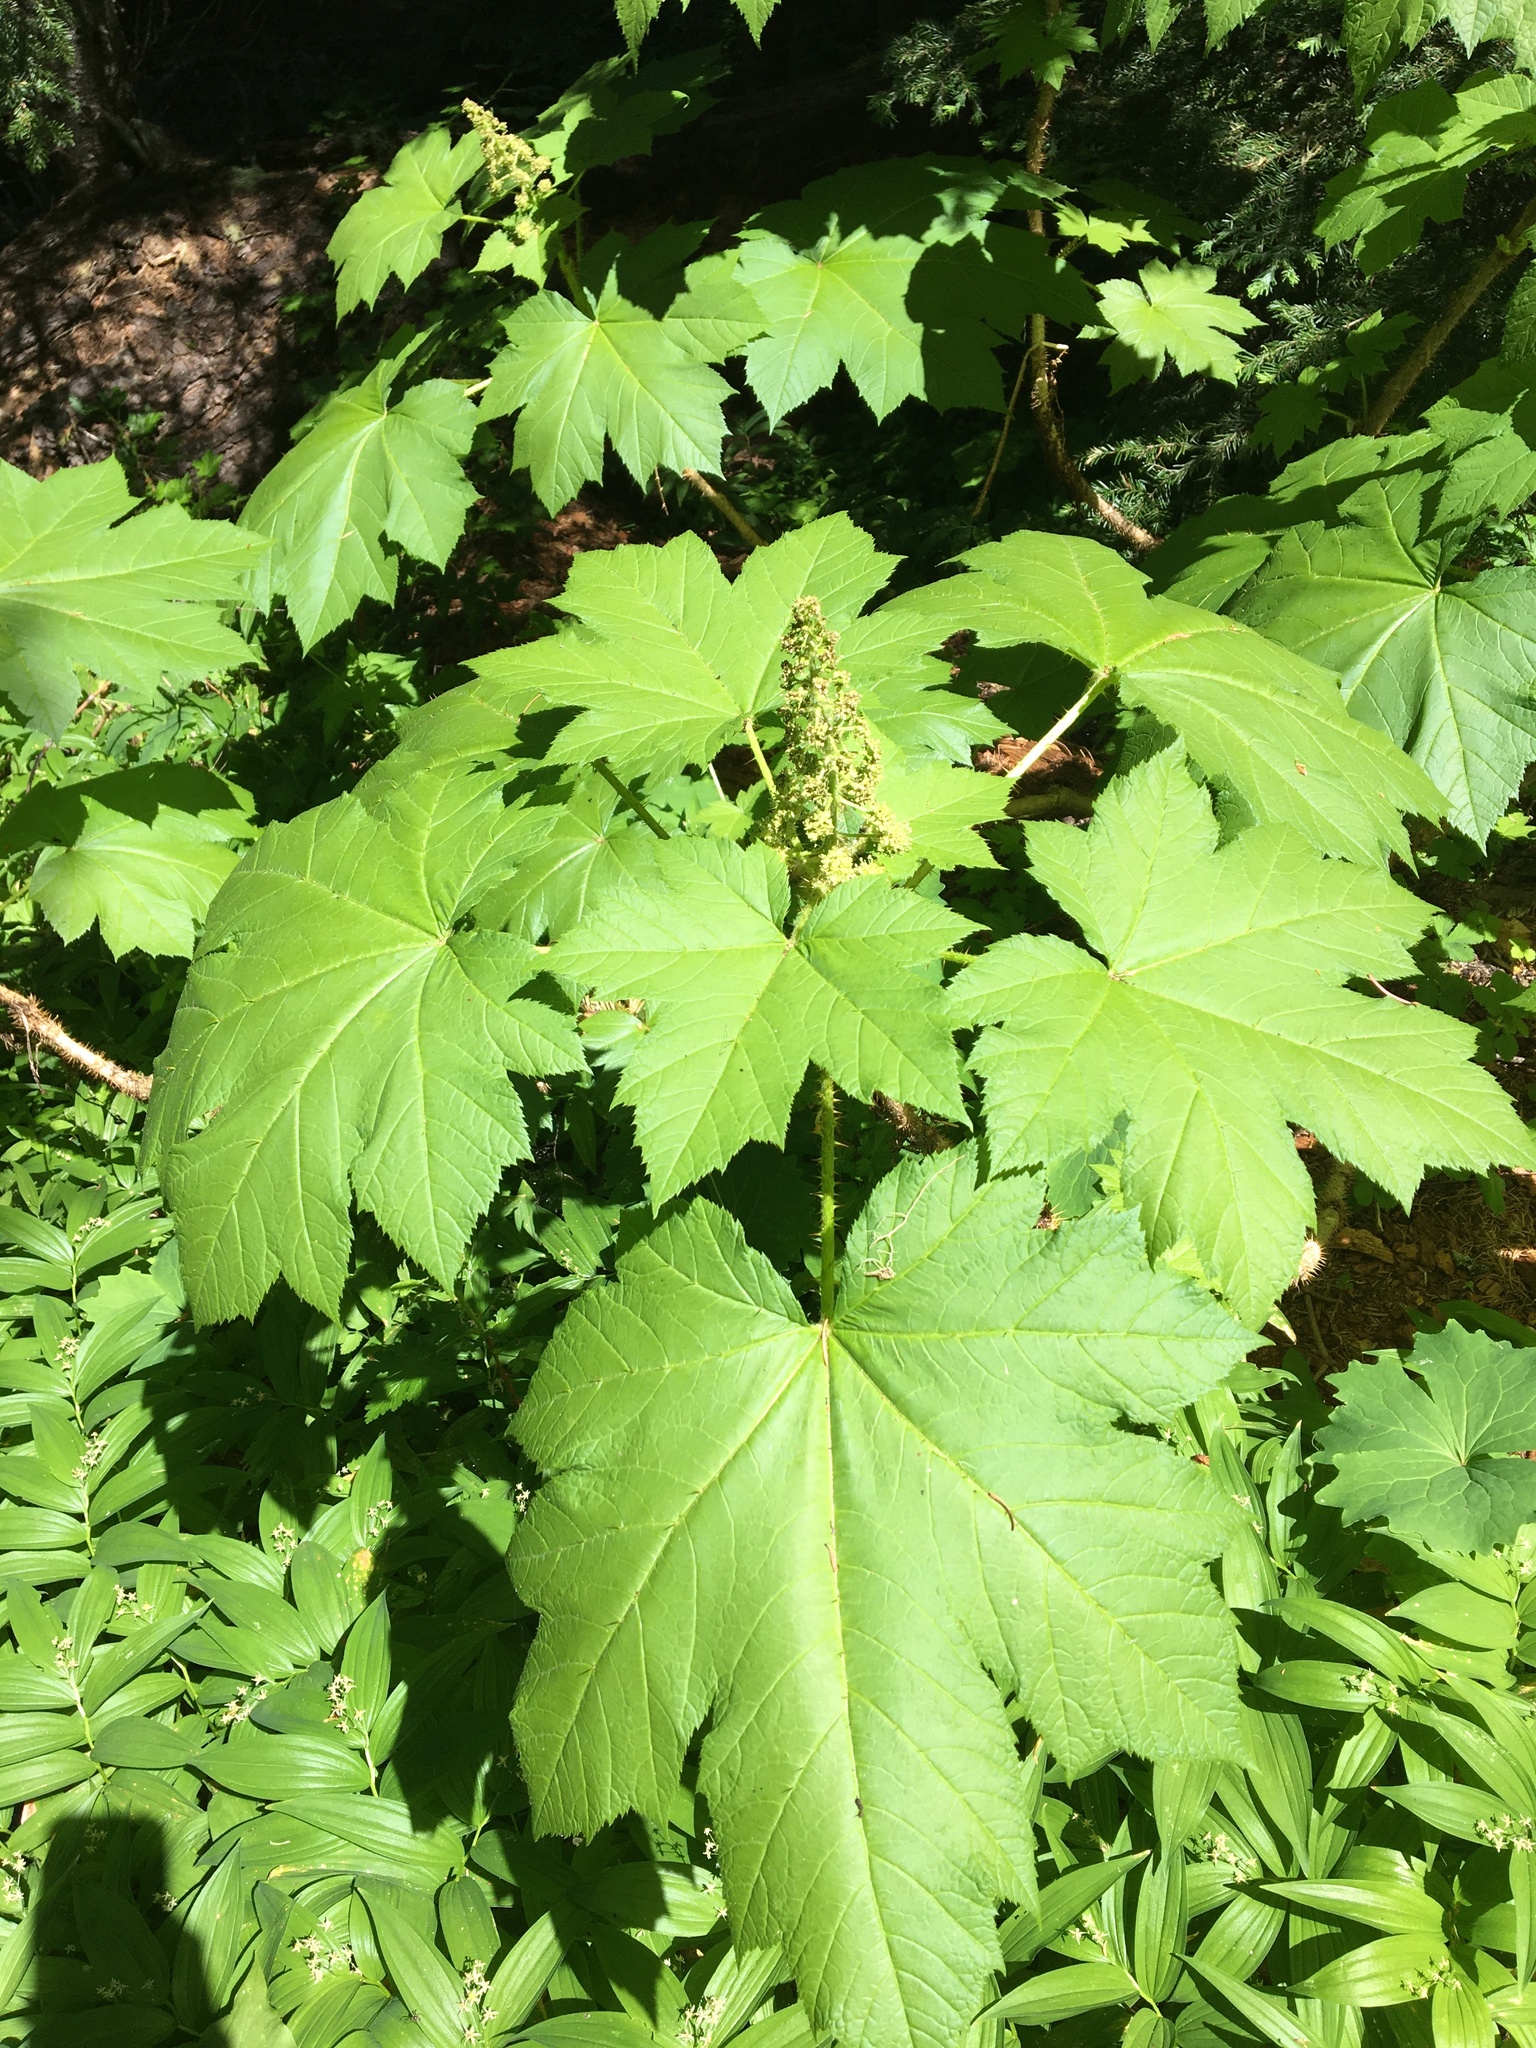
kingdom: Plantae
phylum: Tracheophyta
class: Magnoliopsida
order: Apiales
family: Araliaceae
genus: Oplopanax
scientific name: Oplopanax horridus
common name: Devil's walking-stick
